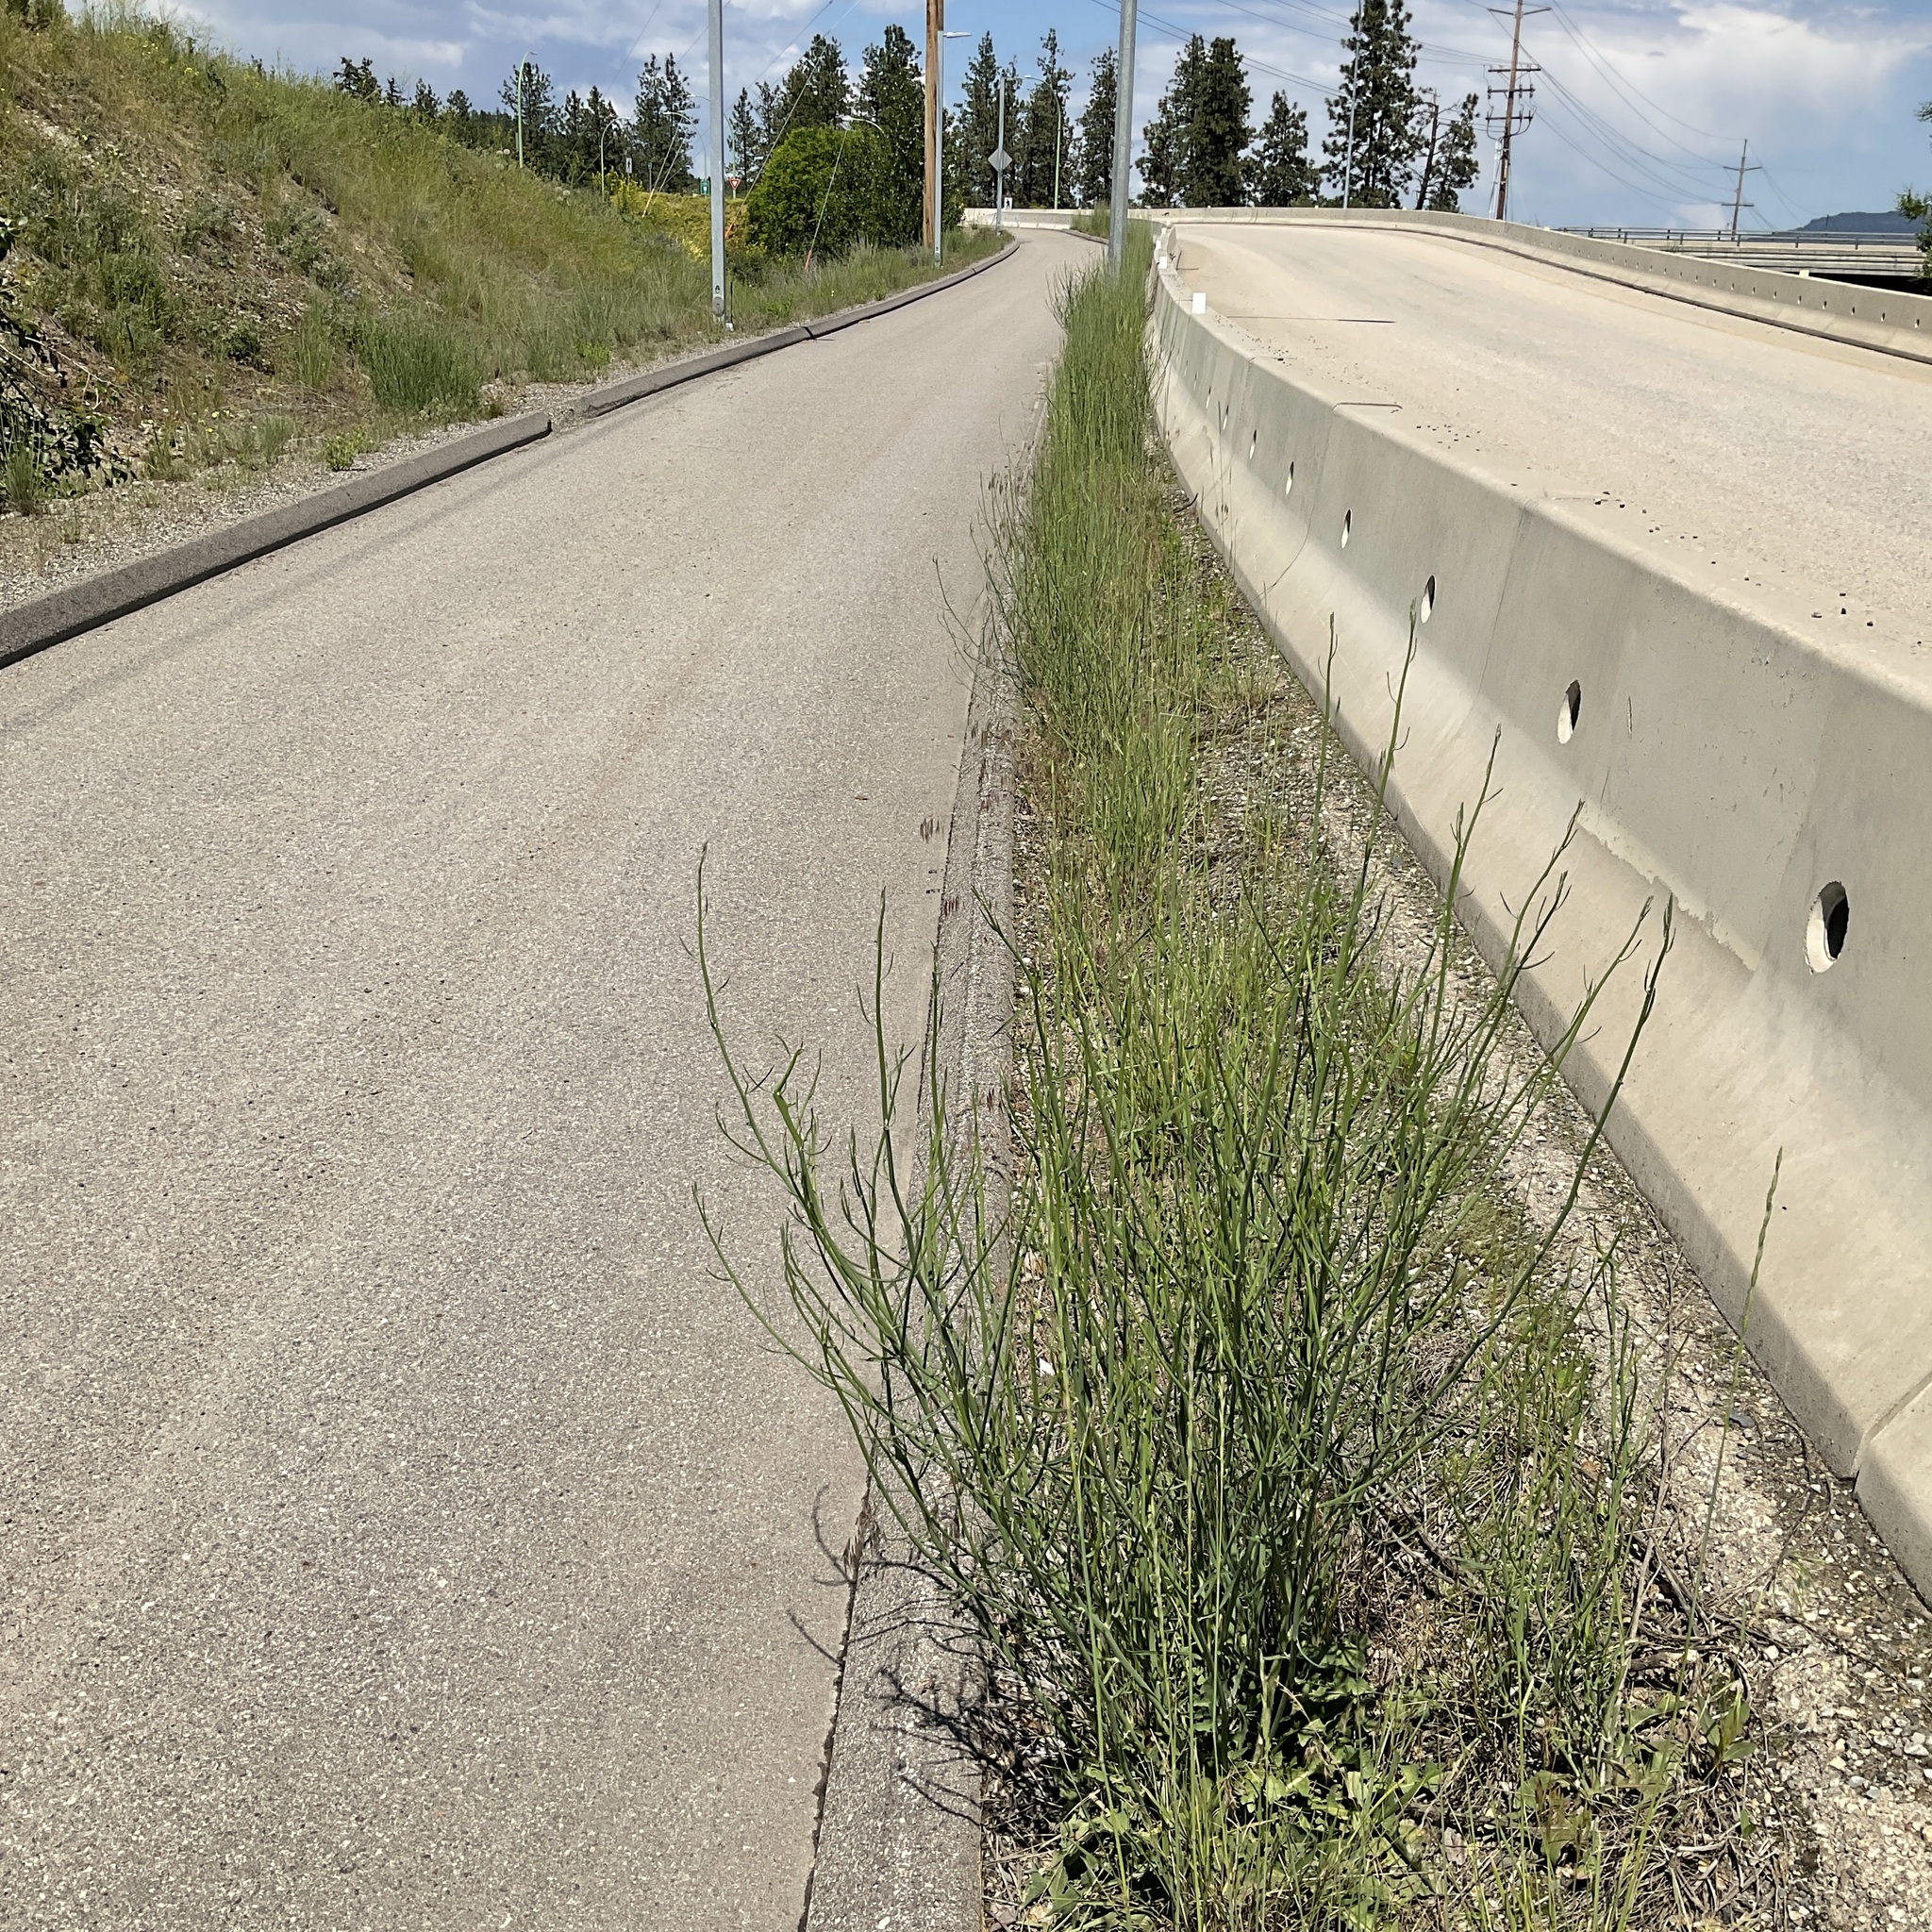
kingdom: Plantae
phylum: Tracheophyta
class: Magnoliopsida
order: Asterales
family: Asteraceae
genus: Chondrilla
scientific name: Chondrilla juncea
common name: Skeleton weed
